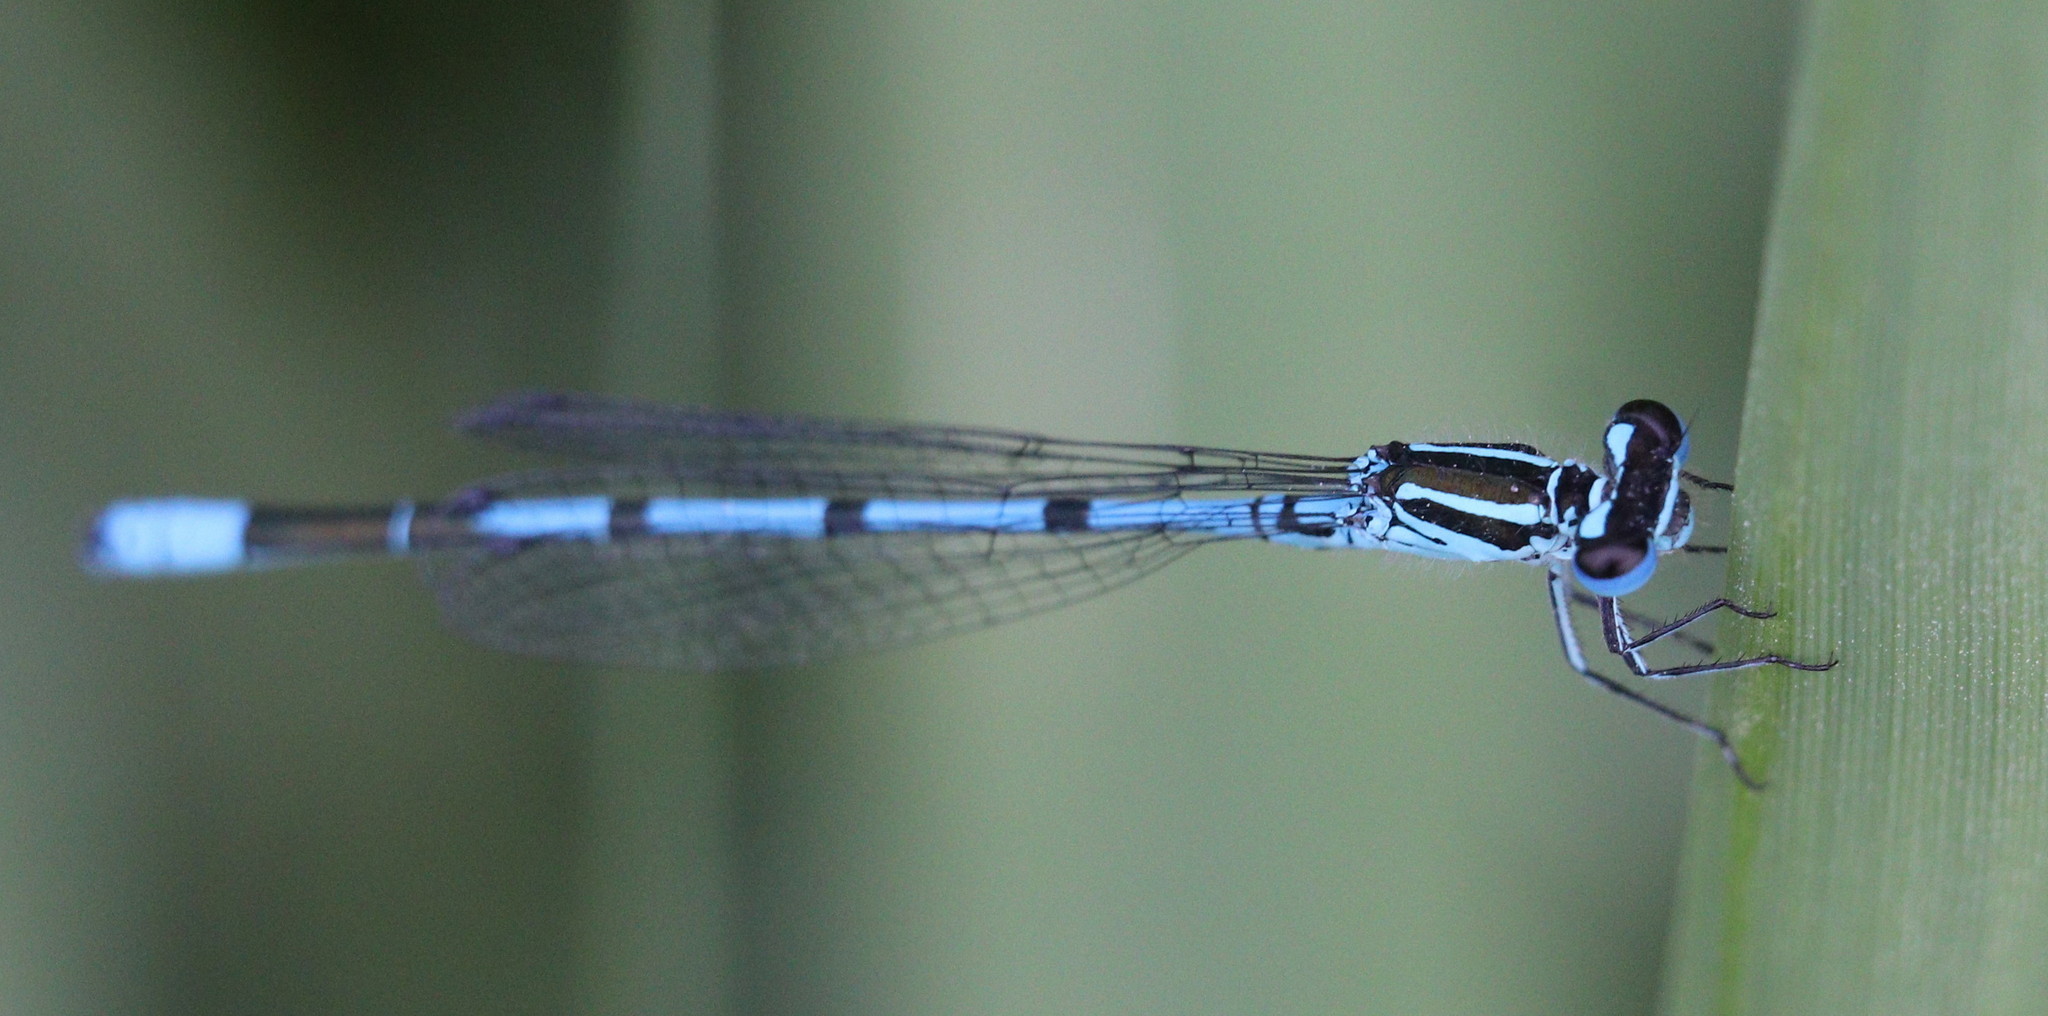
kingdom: Animalia
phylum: Arthropoda
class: Insecta
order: Odonata
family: Coenagrionidae
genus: Coenagrion
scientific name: Coenagrion puella
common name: Azure damselfly
